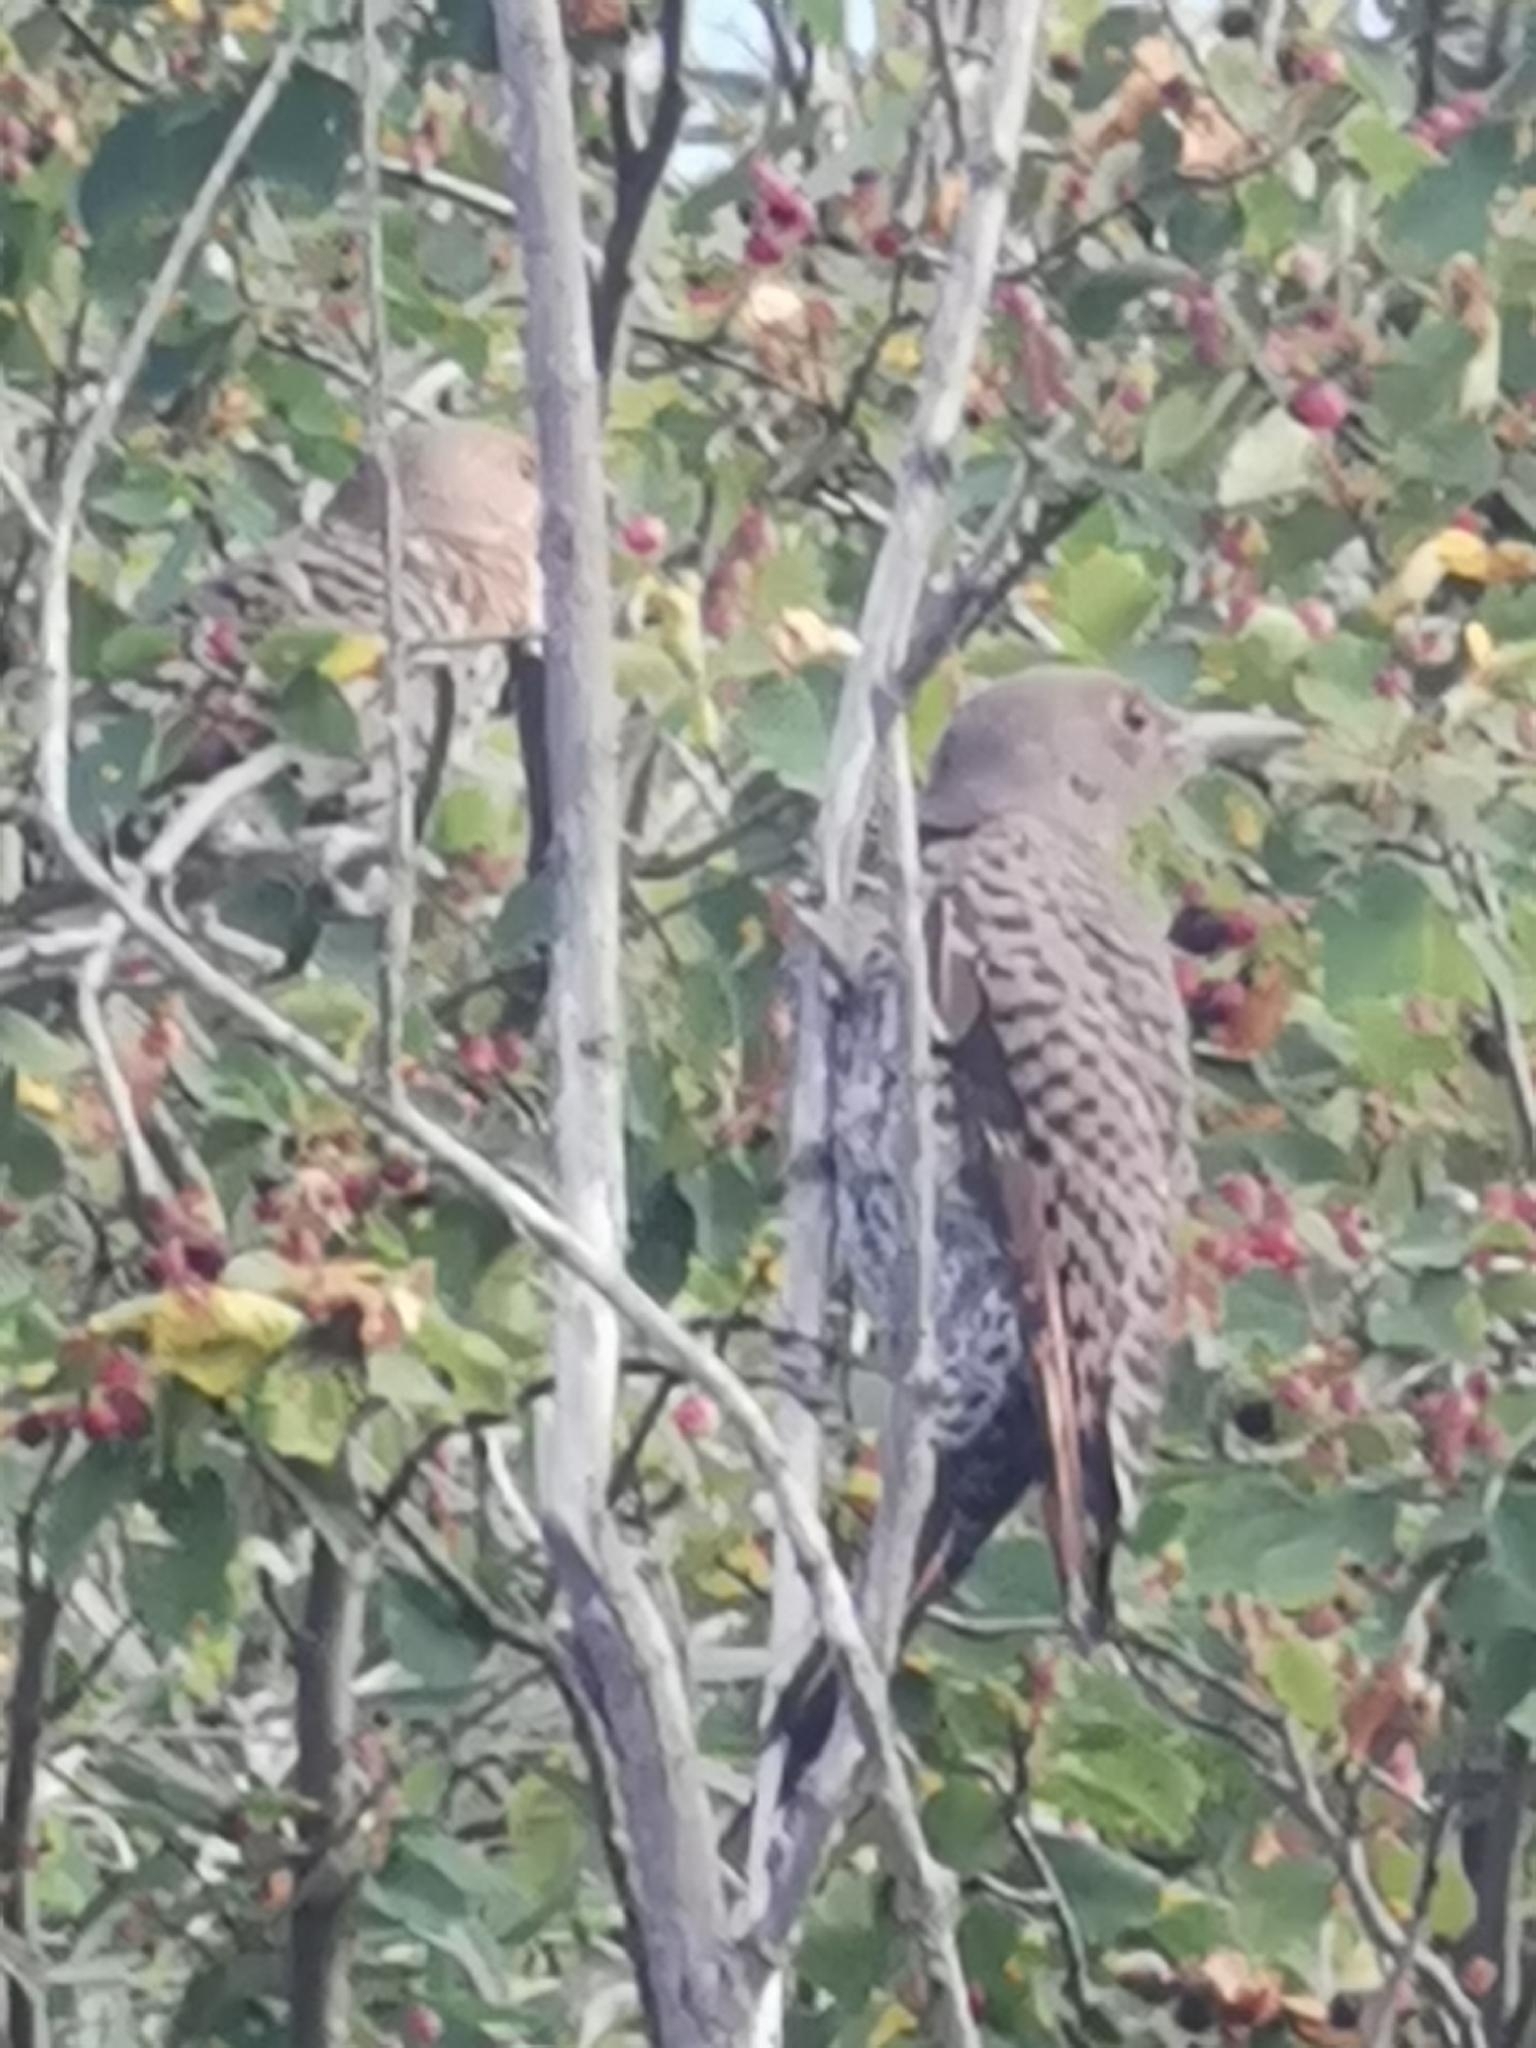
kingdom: Animalia
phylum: Chordata
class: Aves
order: Piciformes
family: Picidae
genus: Colaptes
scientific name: Colaptes auratus
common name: Northern flicker
